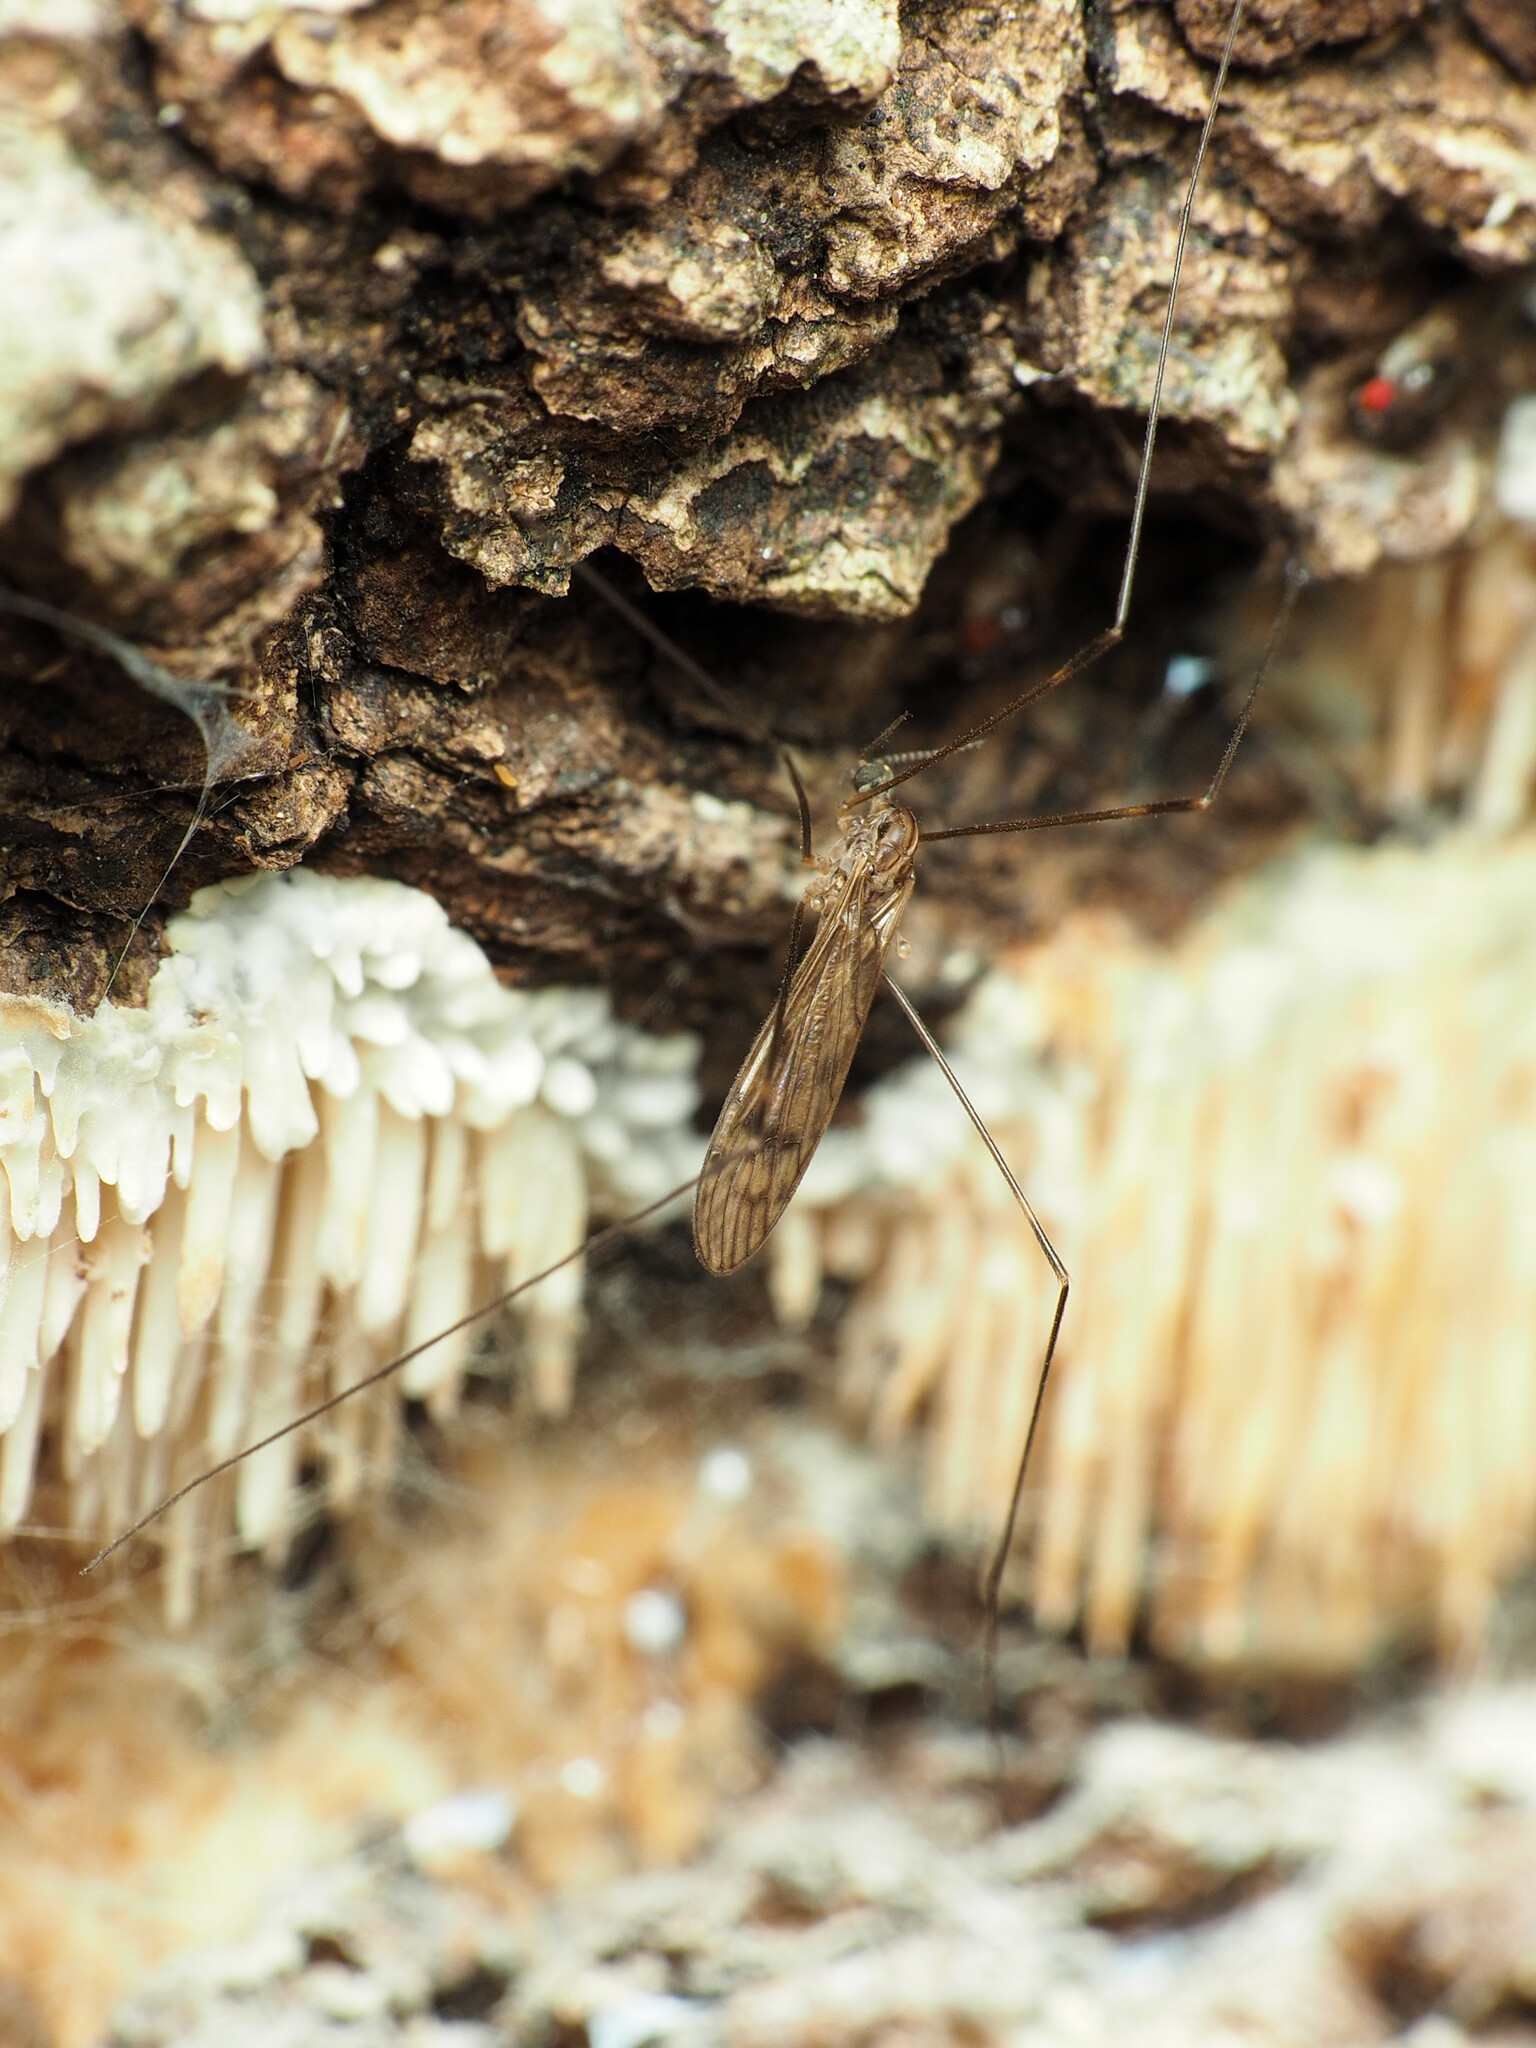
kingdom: Animalia
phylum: Arthropoda
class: Insecta
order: Diptera
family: Limoniidae
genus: Metalimnobia
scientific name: Metalimnobia novaeangliae
